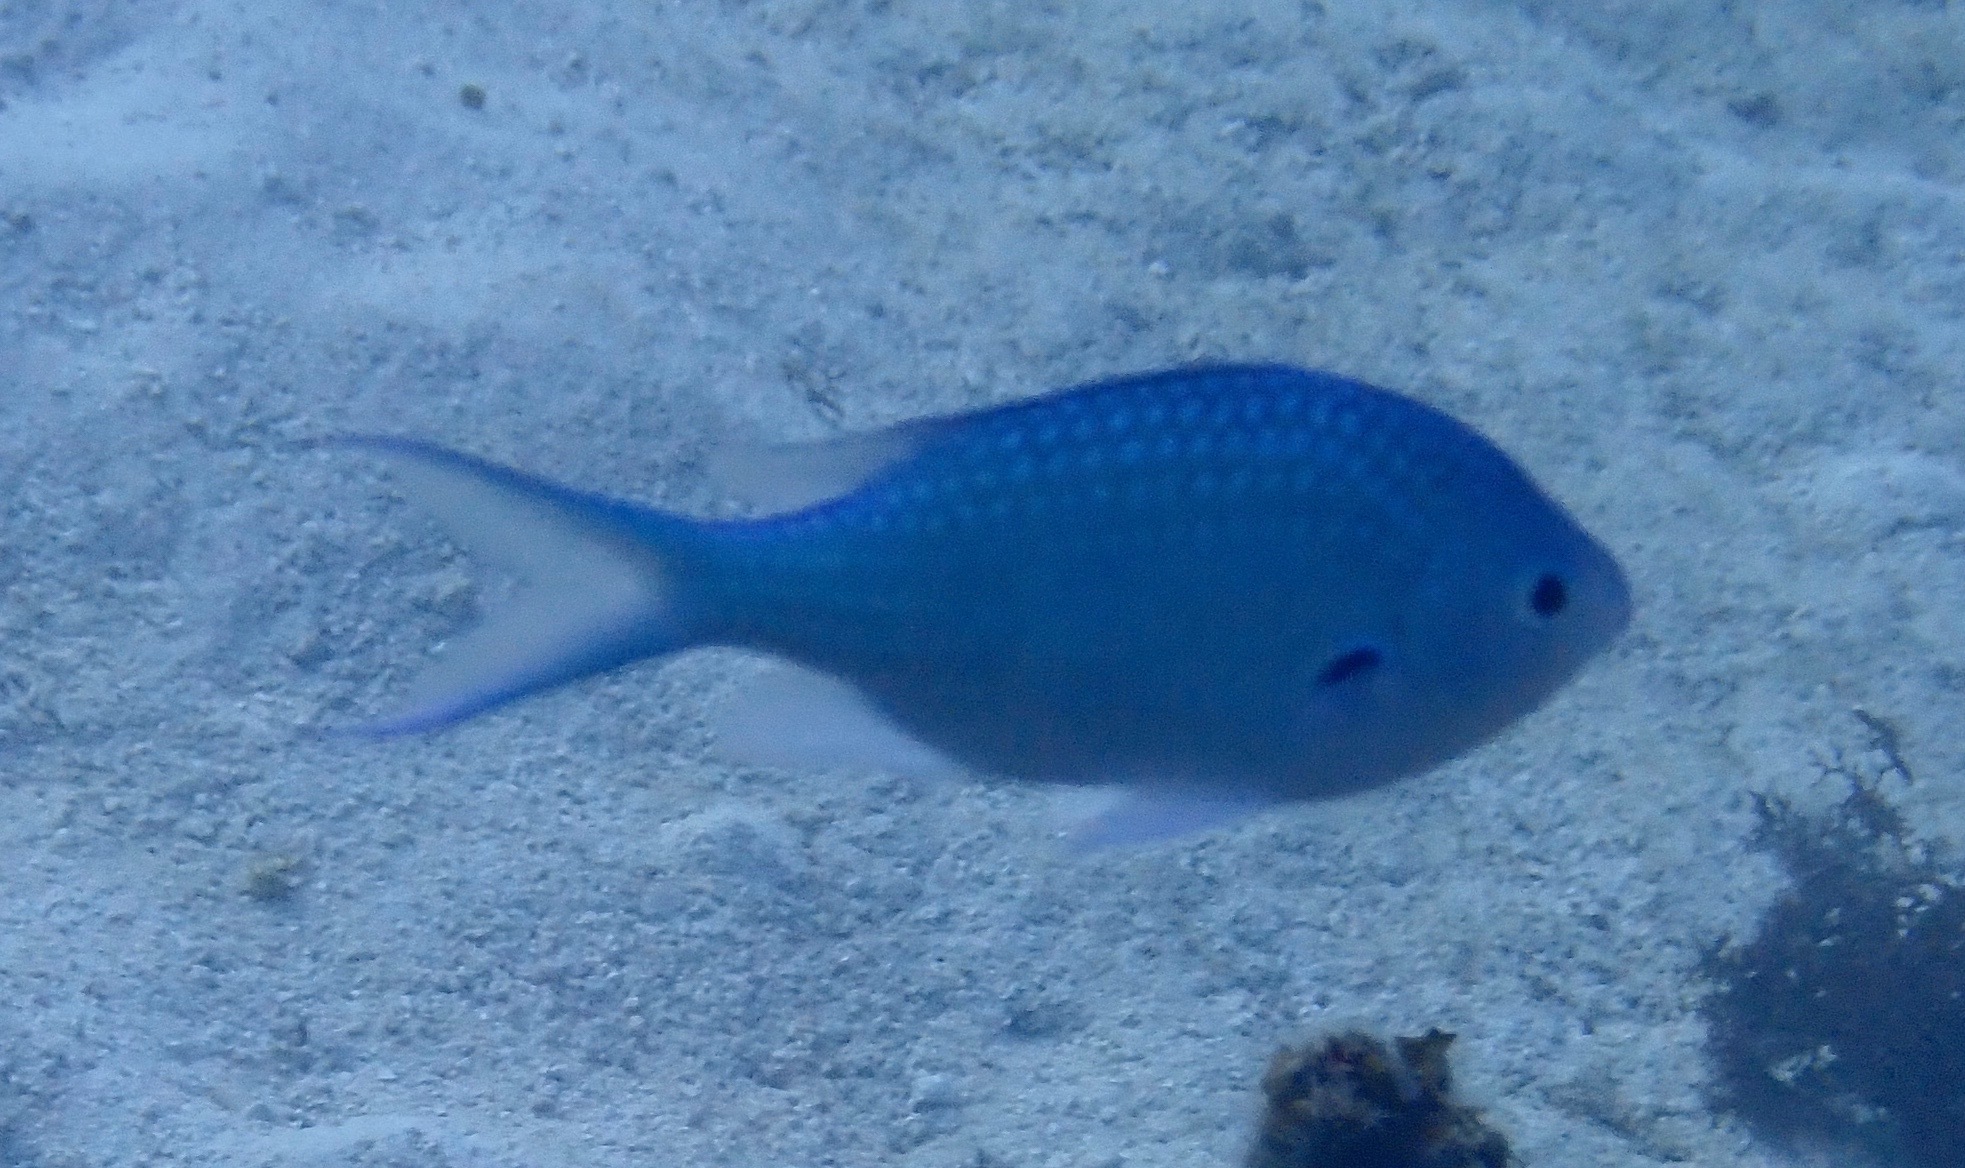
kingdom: Animalia
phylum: Chordata
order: Perciformes
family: Pomacentridae
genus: Chromis
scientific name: Chromis atripectoralis
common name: Black-axil chromis
